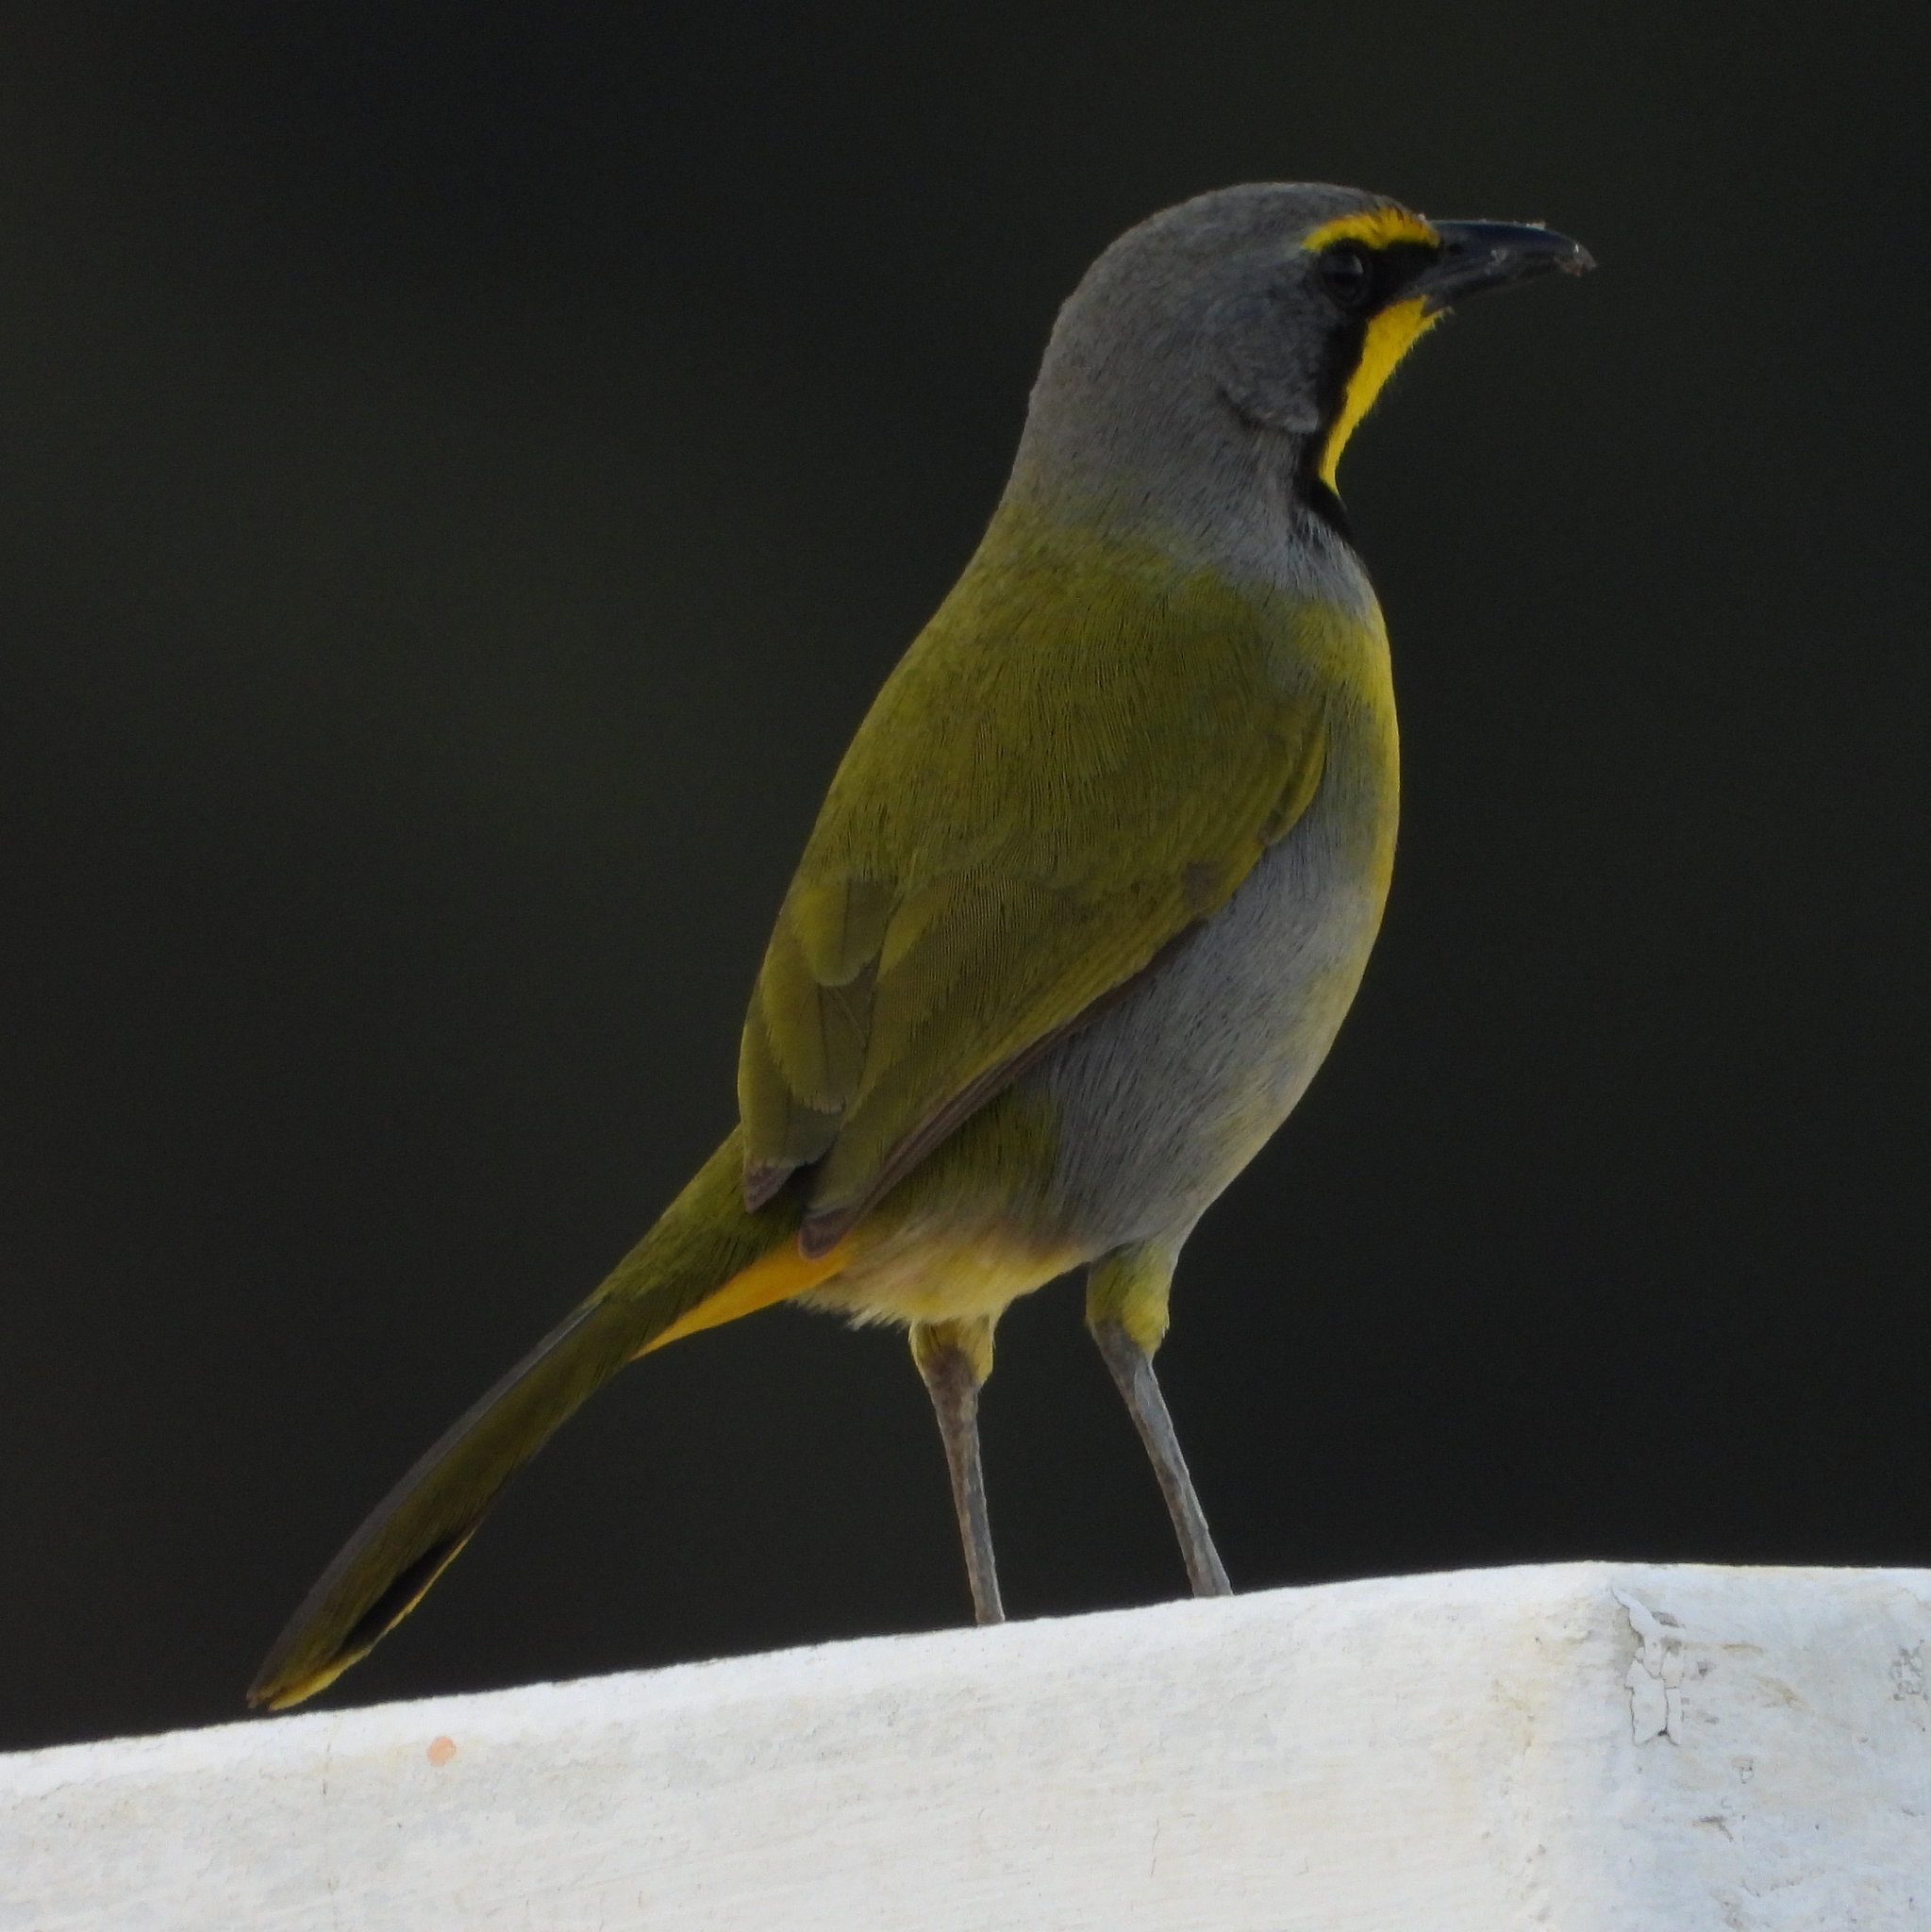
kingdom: Animalia
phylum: Chordata
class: Aves
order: Passeriformes
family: Malaconotidae
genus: Telophorus
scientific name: Telophorus zeylonus
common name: Bokmakierie
